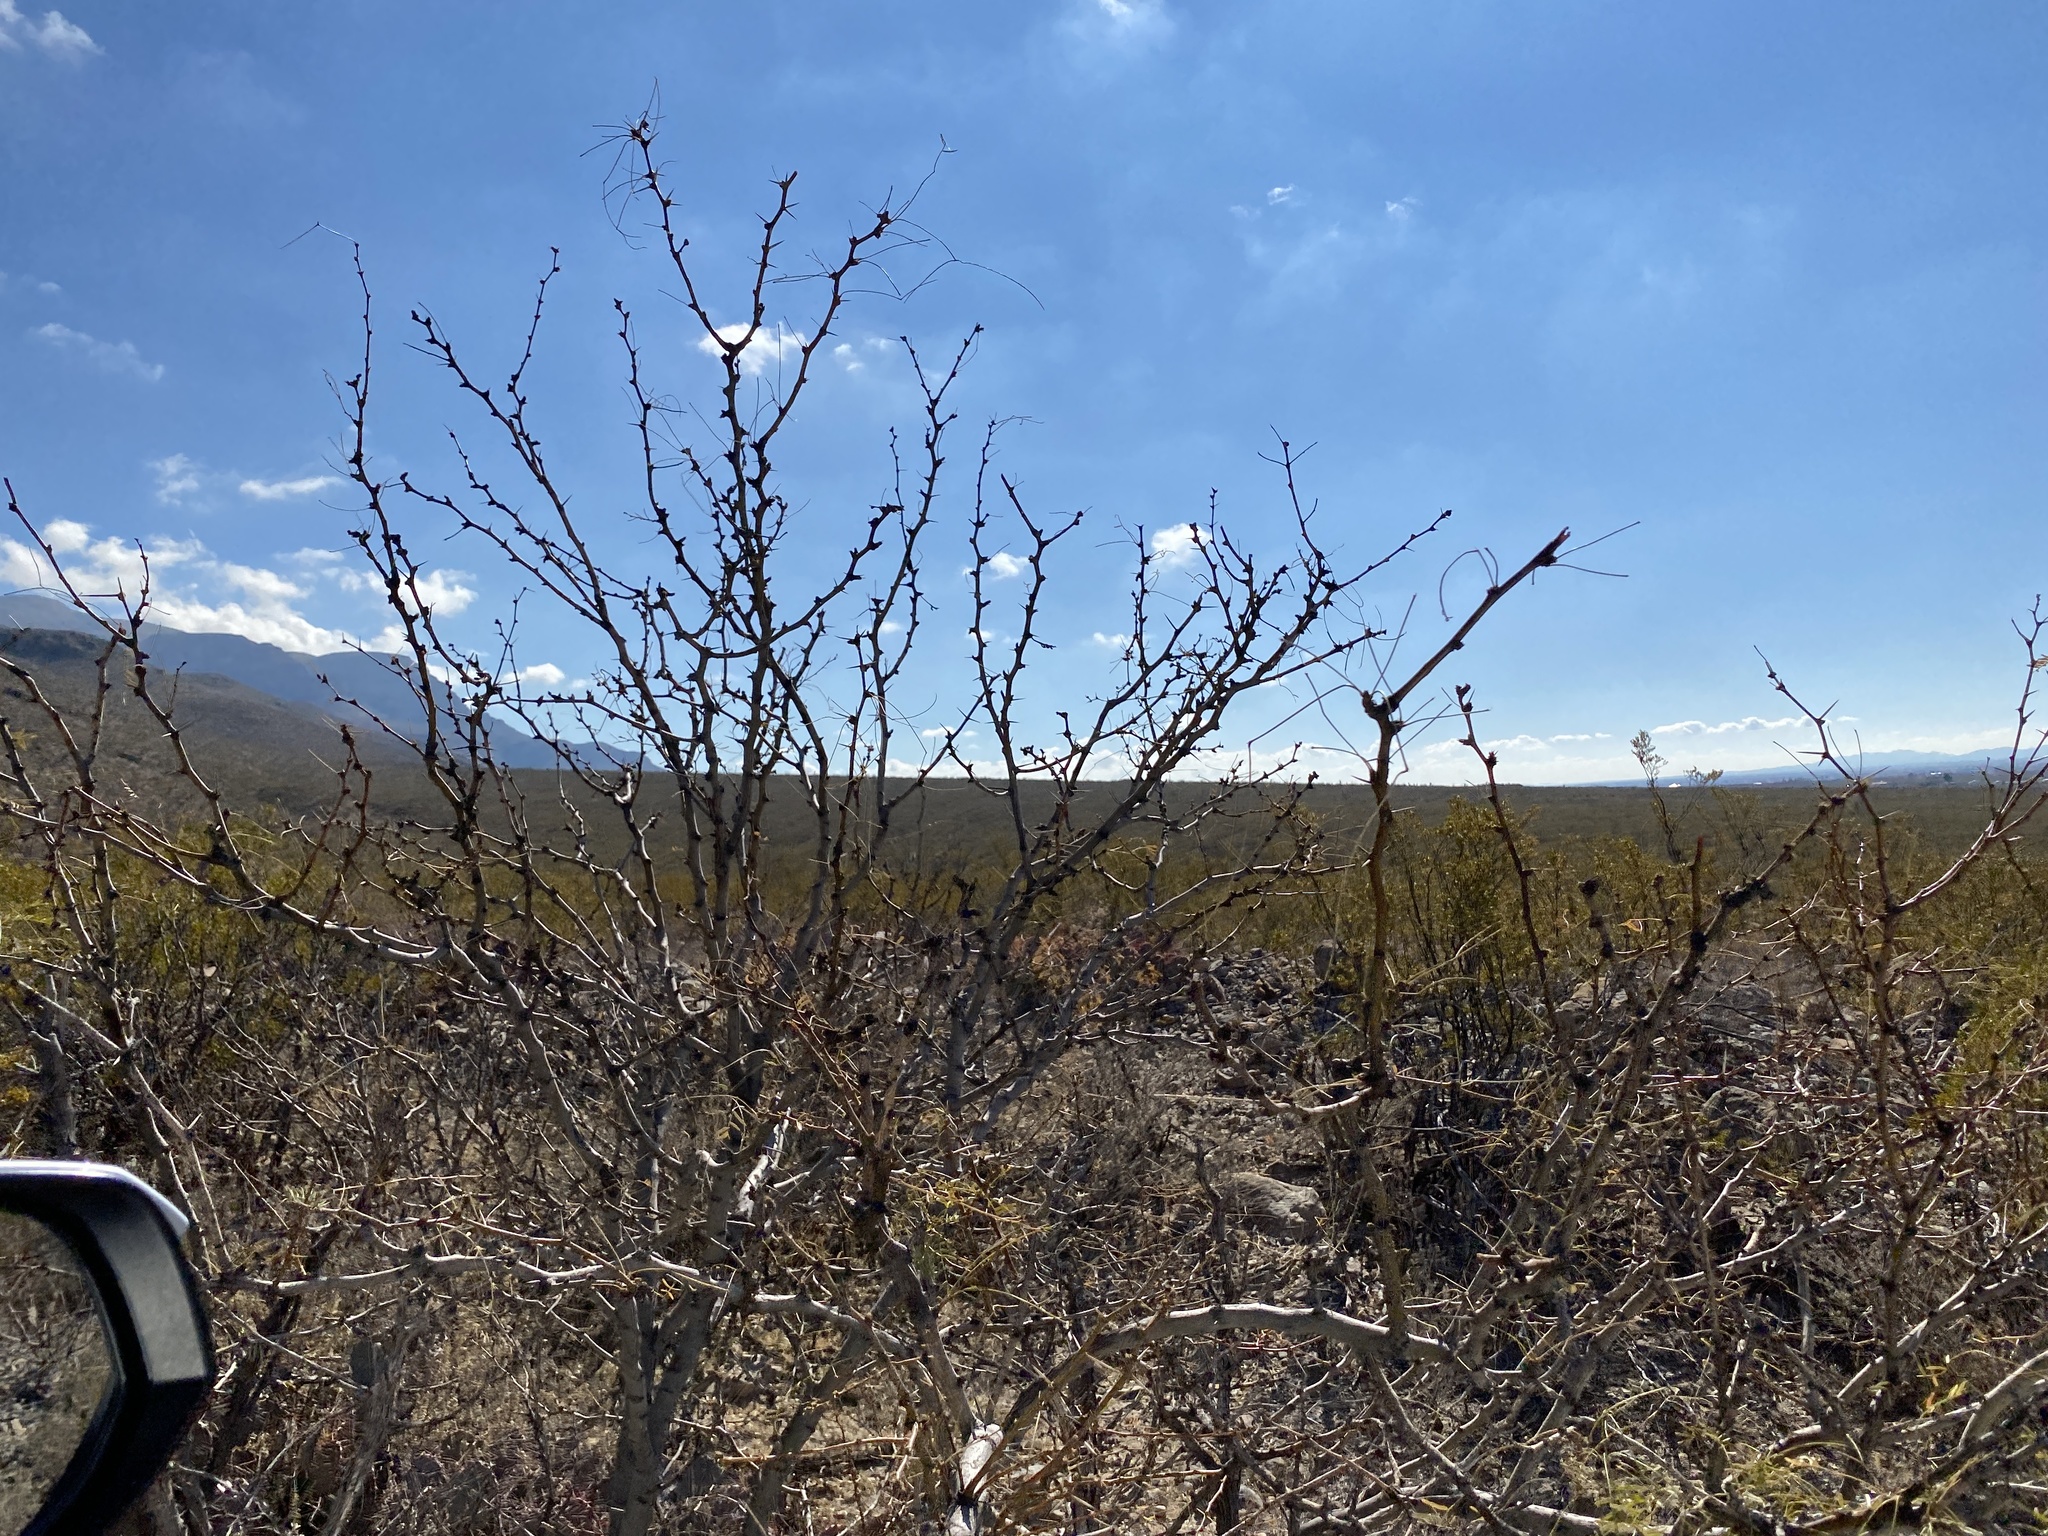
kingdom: Plantae
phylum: Tracheophyta
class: Magnoliopsida
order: Fabales
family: Fabaceae
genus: Prosopis
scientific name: Prosopis glandulosa
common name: Honey mesquite
